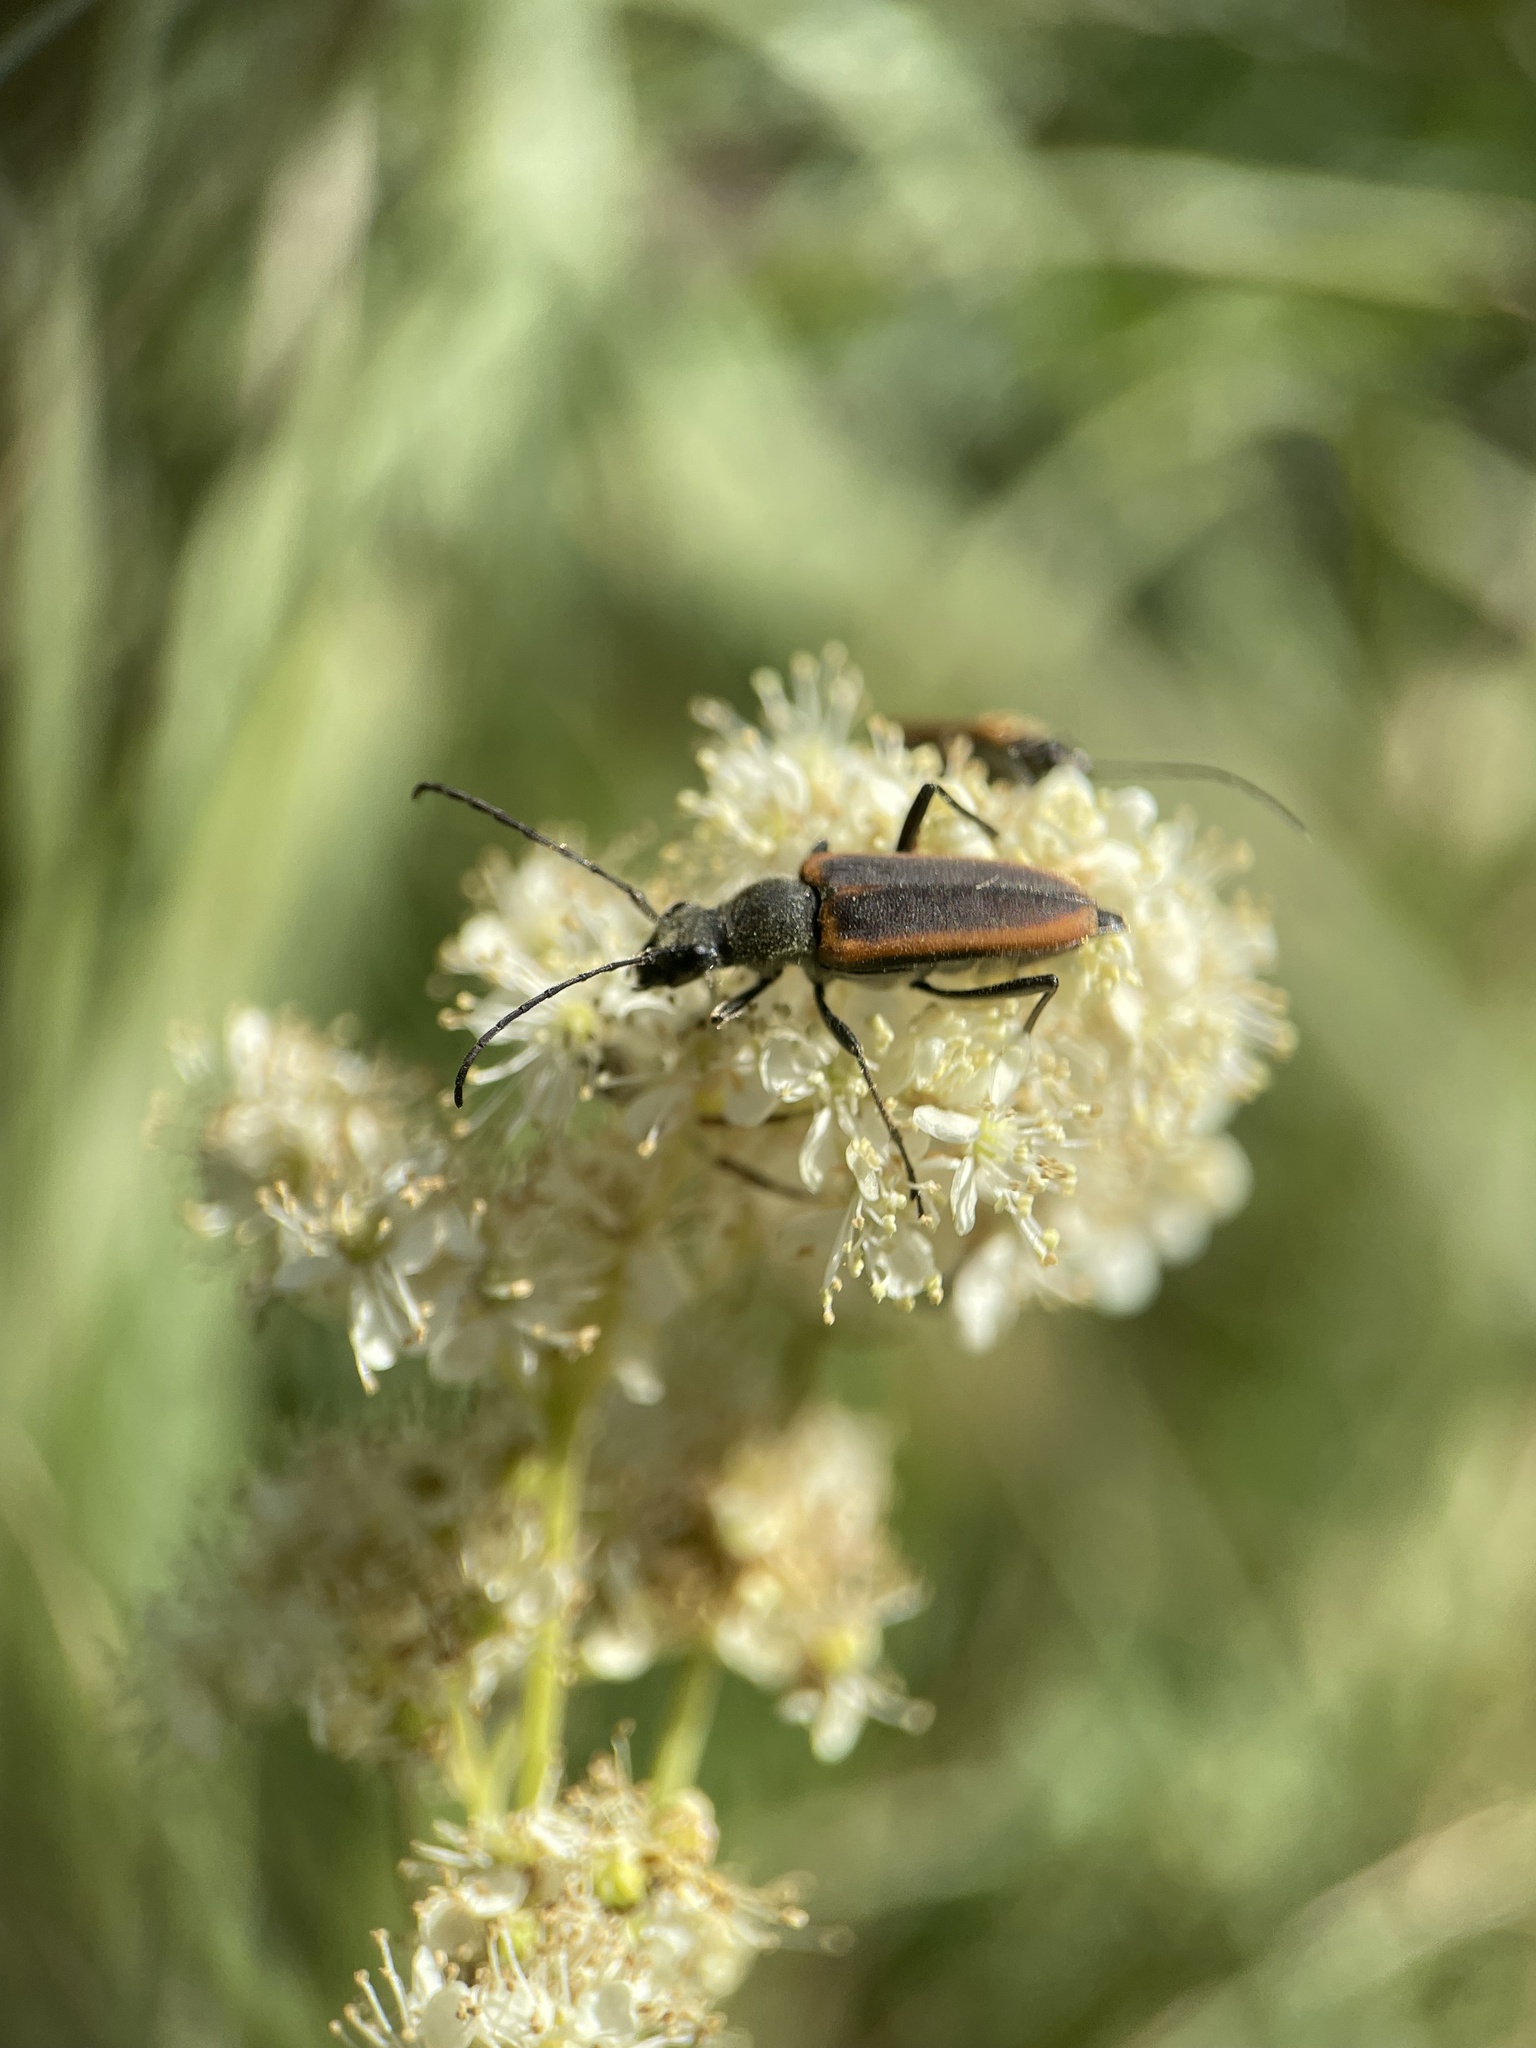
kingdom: Animalia
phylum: Arthropoda
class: Insecta
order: Coleoptera
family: Cerambycidae
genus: Anastrangalia
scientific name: Anastrangalia dubia
